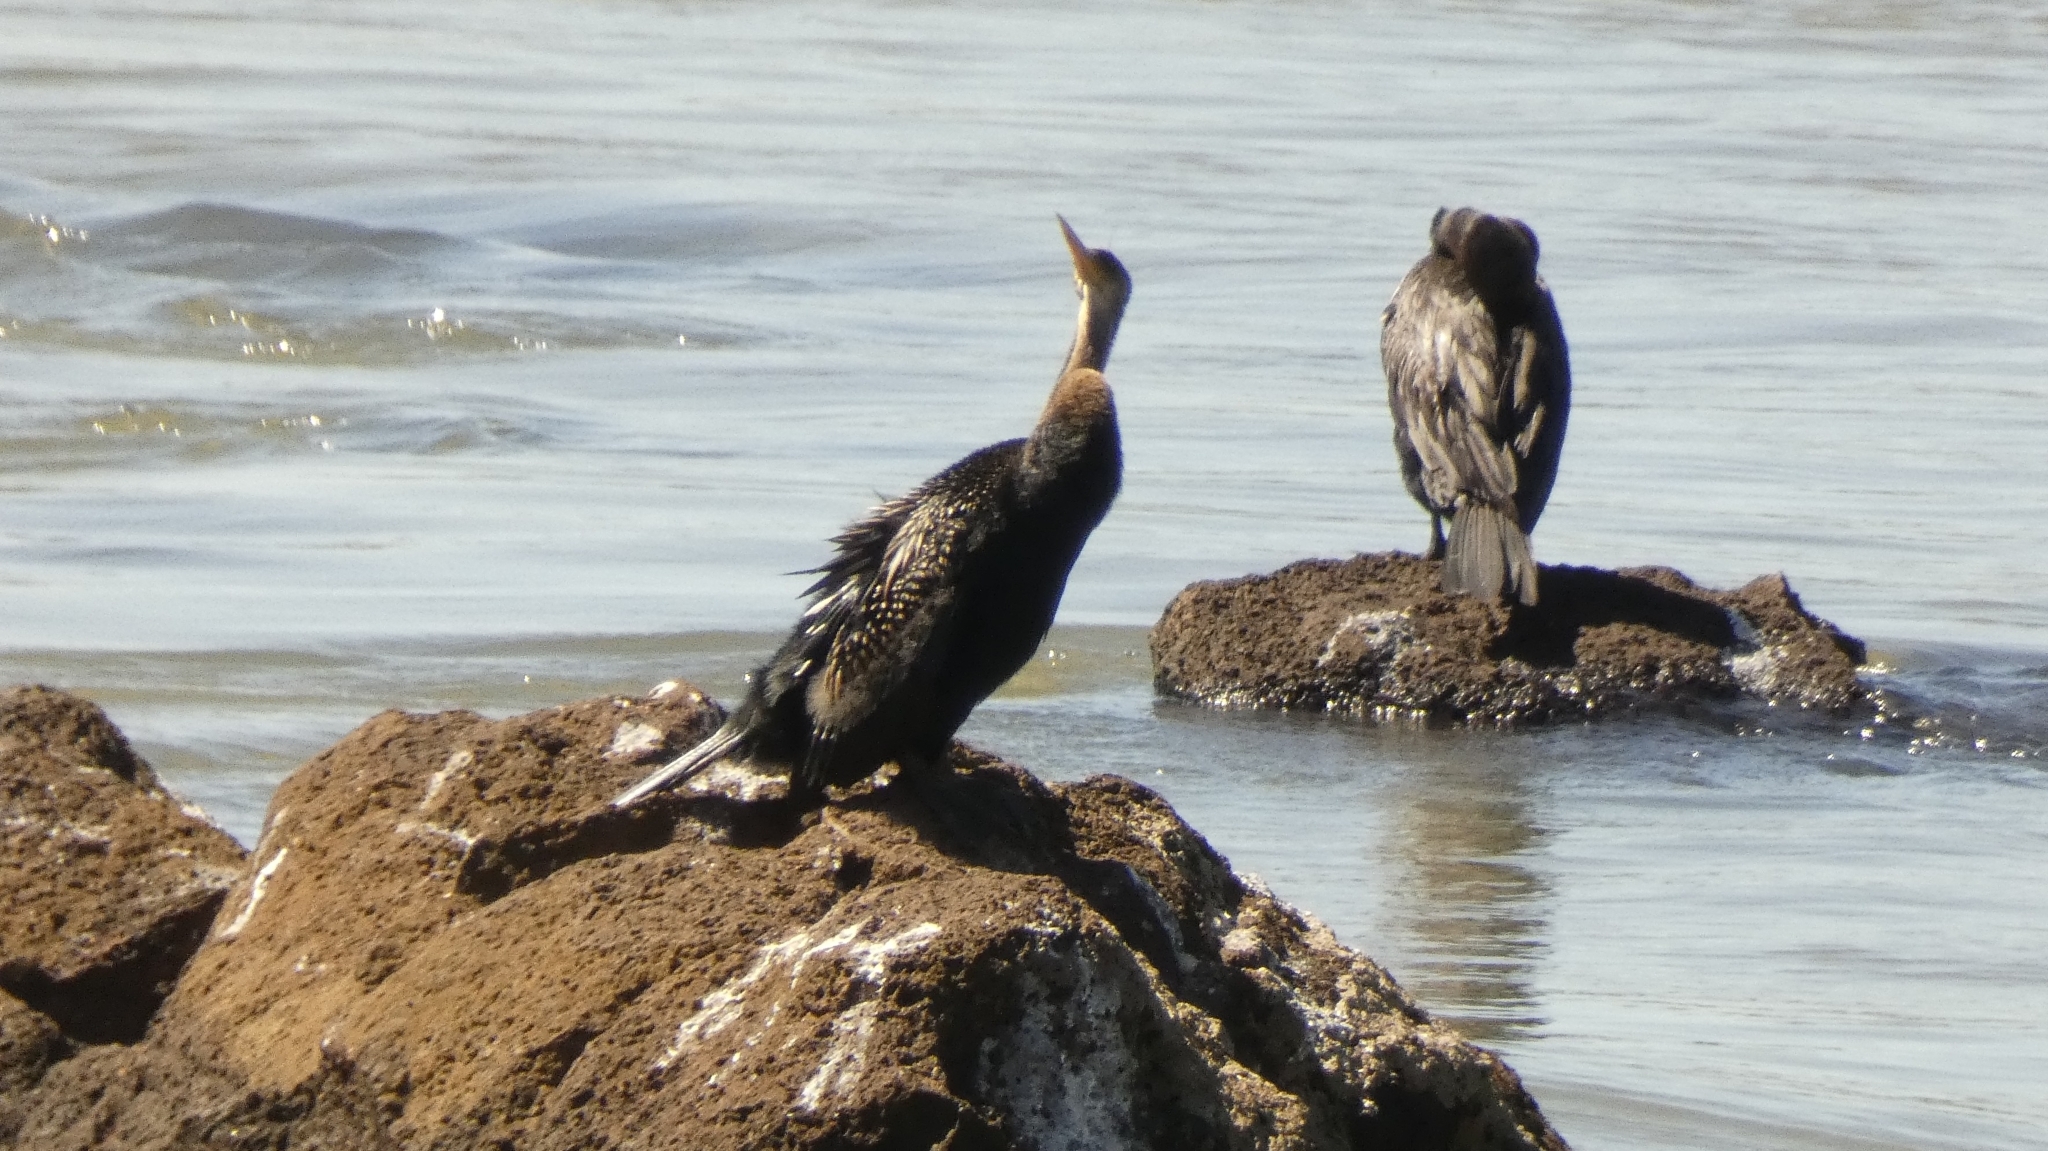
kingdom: Animalia
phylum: Chordata
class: Aves
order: Suliformes
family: Anhingidae
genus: Anhinga
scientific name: Anhinga anhinga
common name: Anhinga
